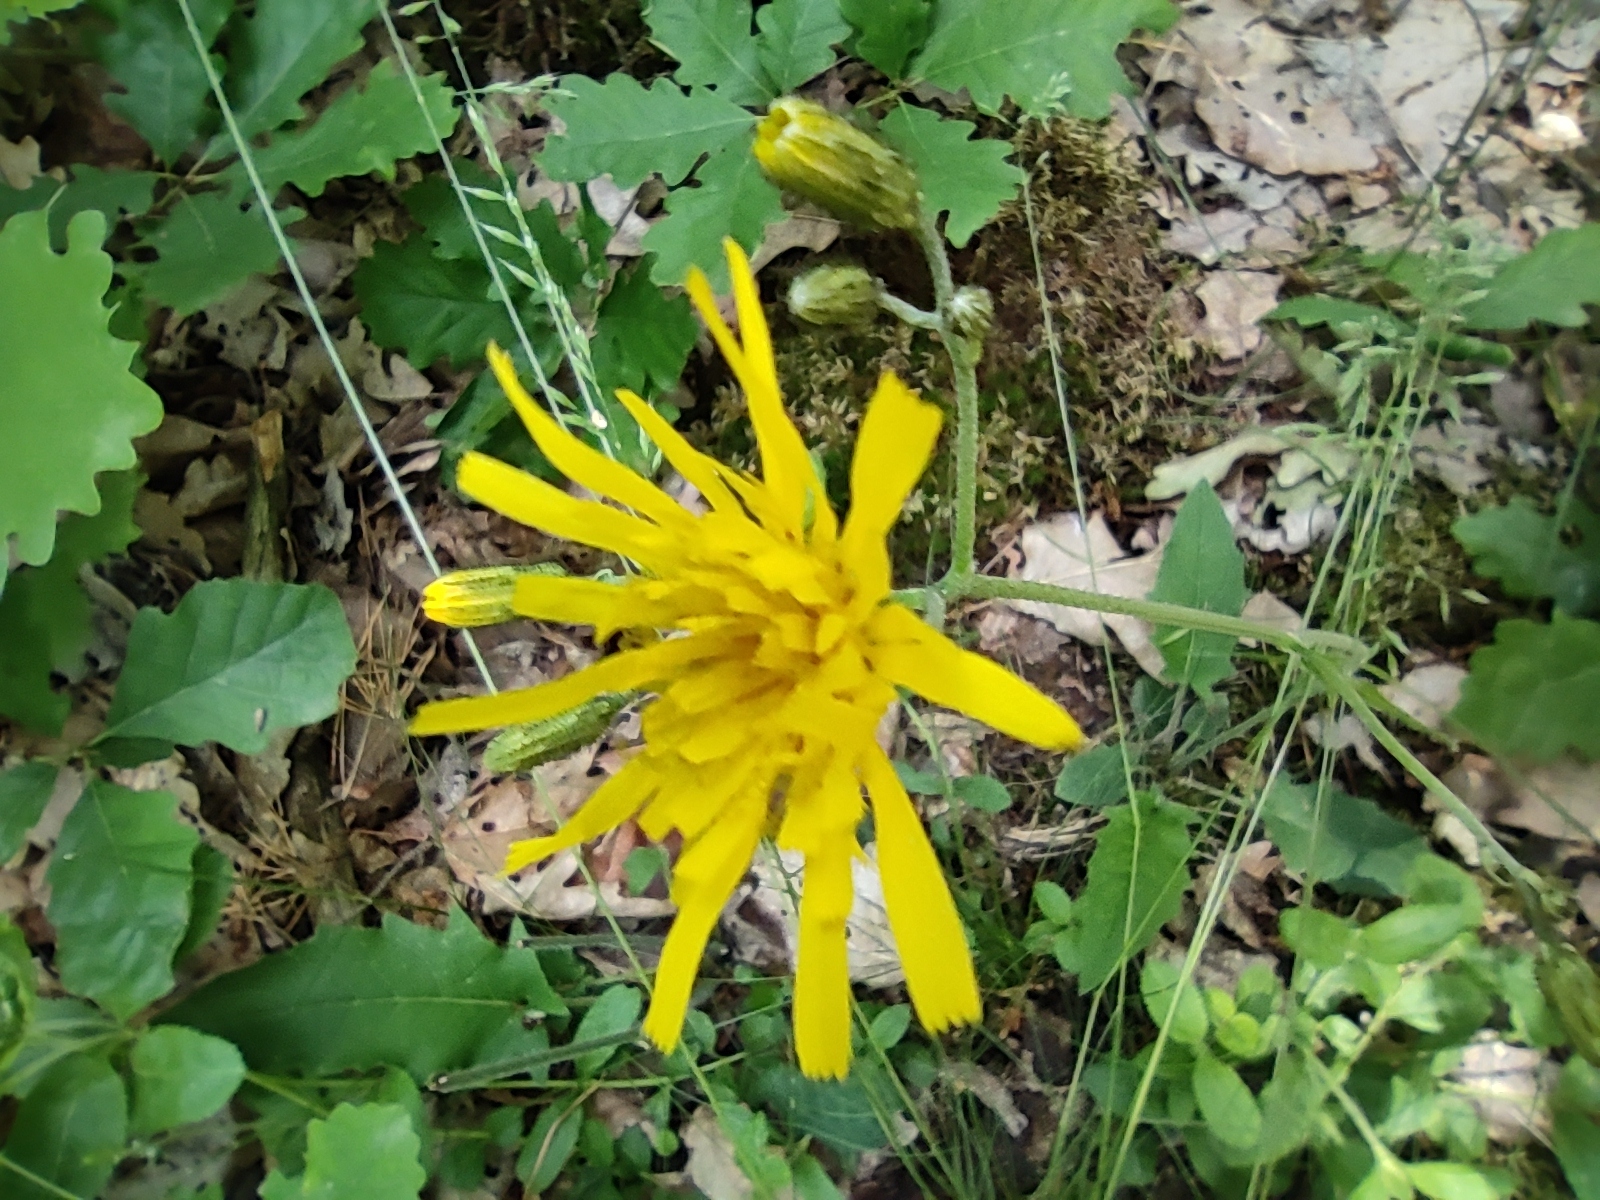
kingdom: Plantae
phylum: Tracheophyta
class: Magnoliopsida
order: Asterales
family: Asteraceae
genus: Hieracium
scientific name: Hieracium murorum
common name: Wall hawkweed
